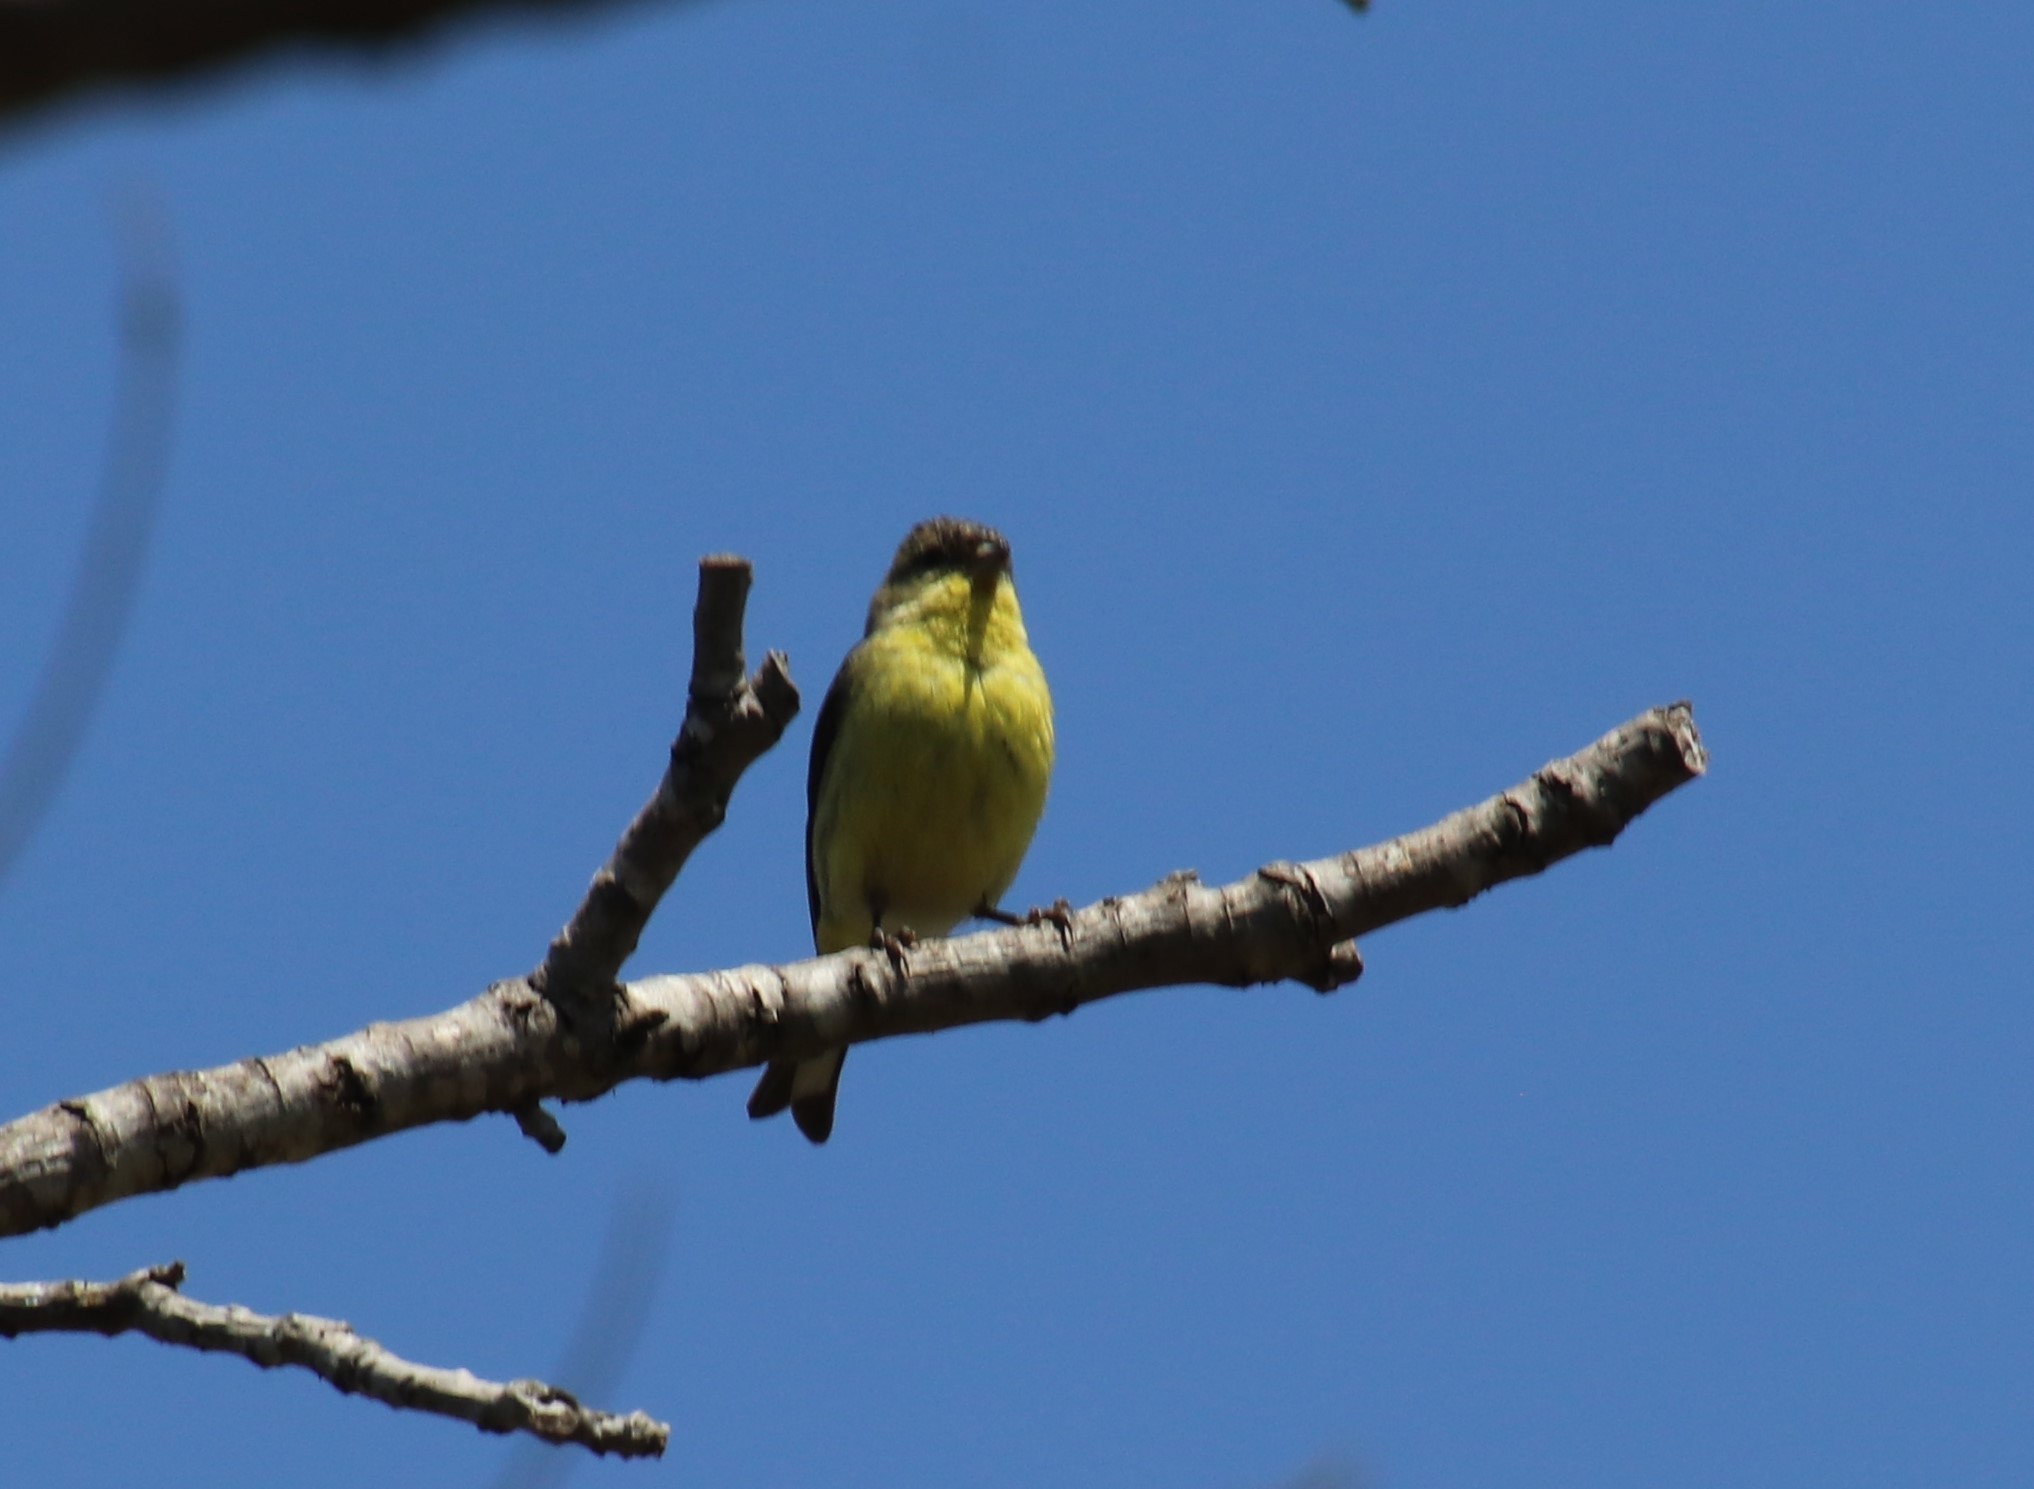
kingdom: Animalia
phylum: Chordata
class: Aves
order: Passeriformes
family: Fringillidae
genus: Spinus
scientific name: Spinus psaltria
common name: Lesser goldfinch
